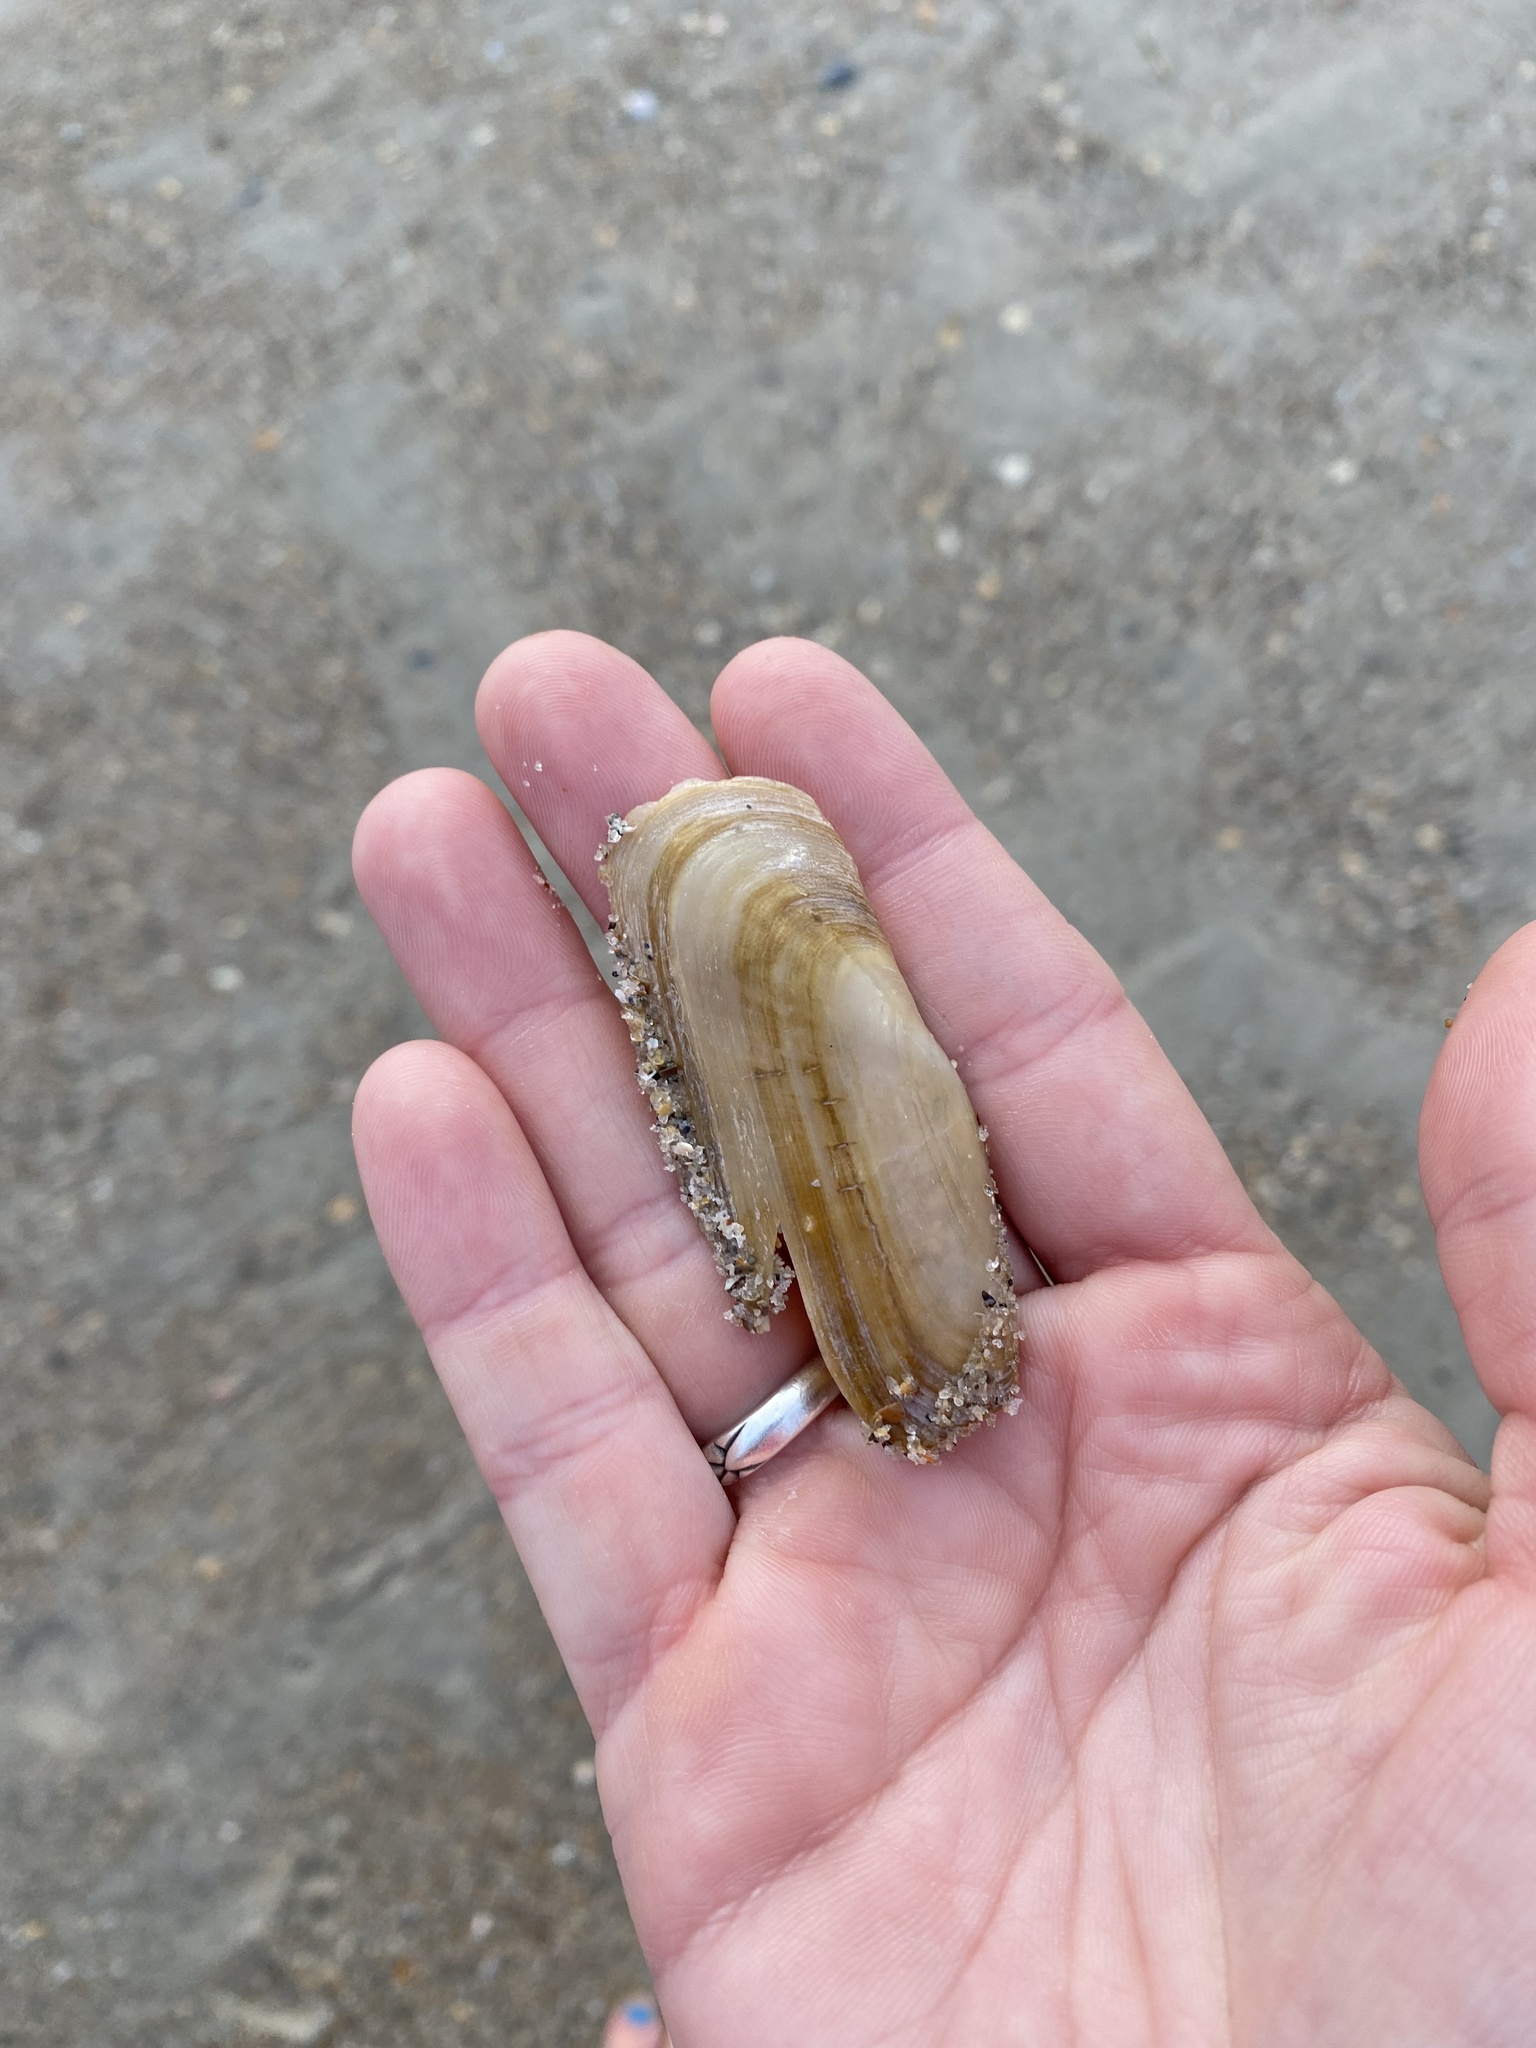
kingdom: Animalia
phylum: Mollusca
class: Bivalvia
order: Cardiida
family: Solecurtidae
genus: Tagelus
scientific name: Tagelus plebeius
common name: Stout tagelus
